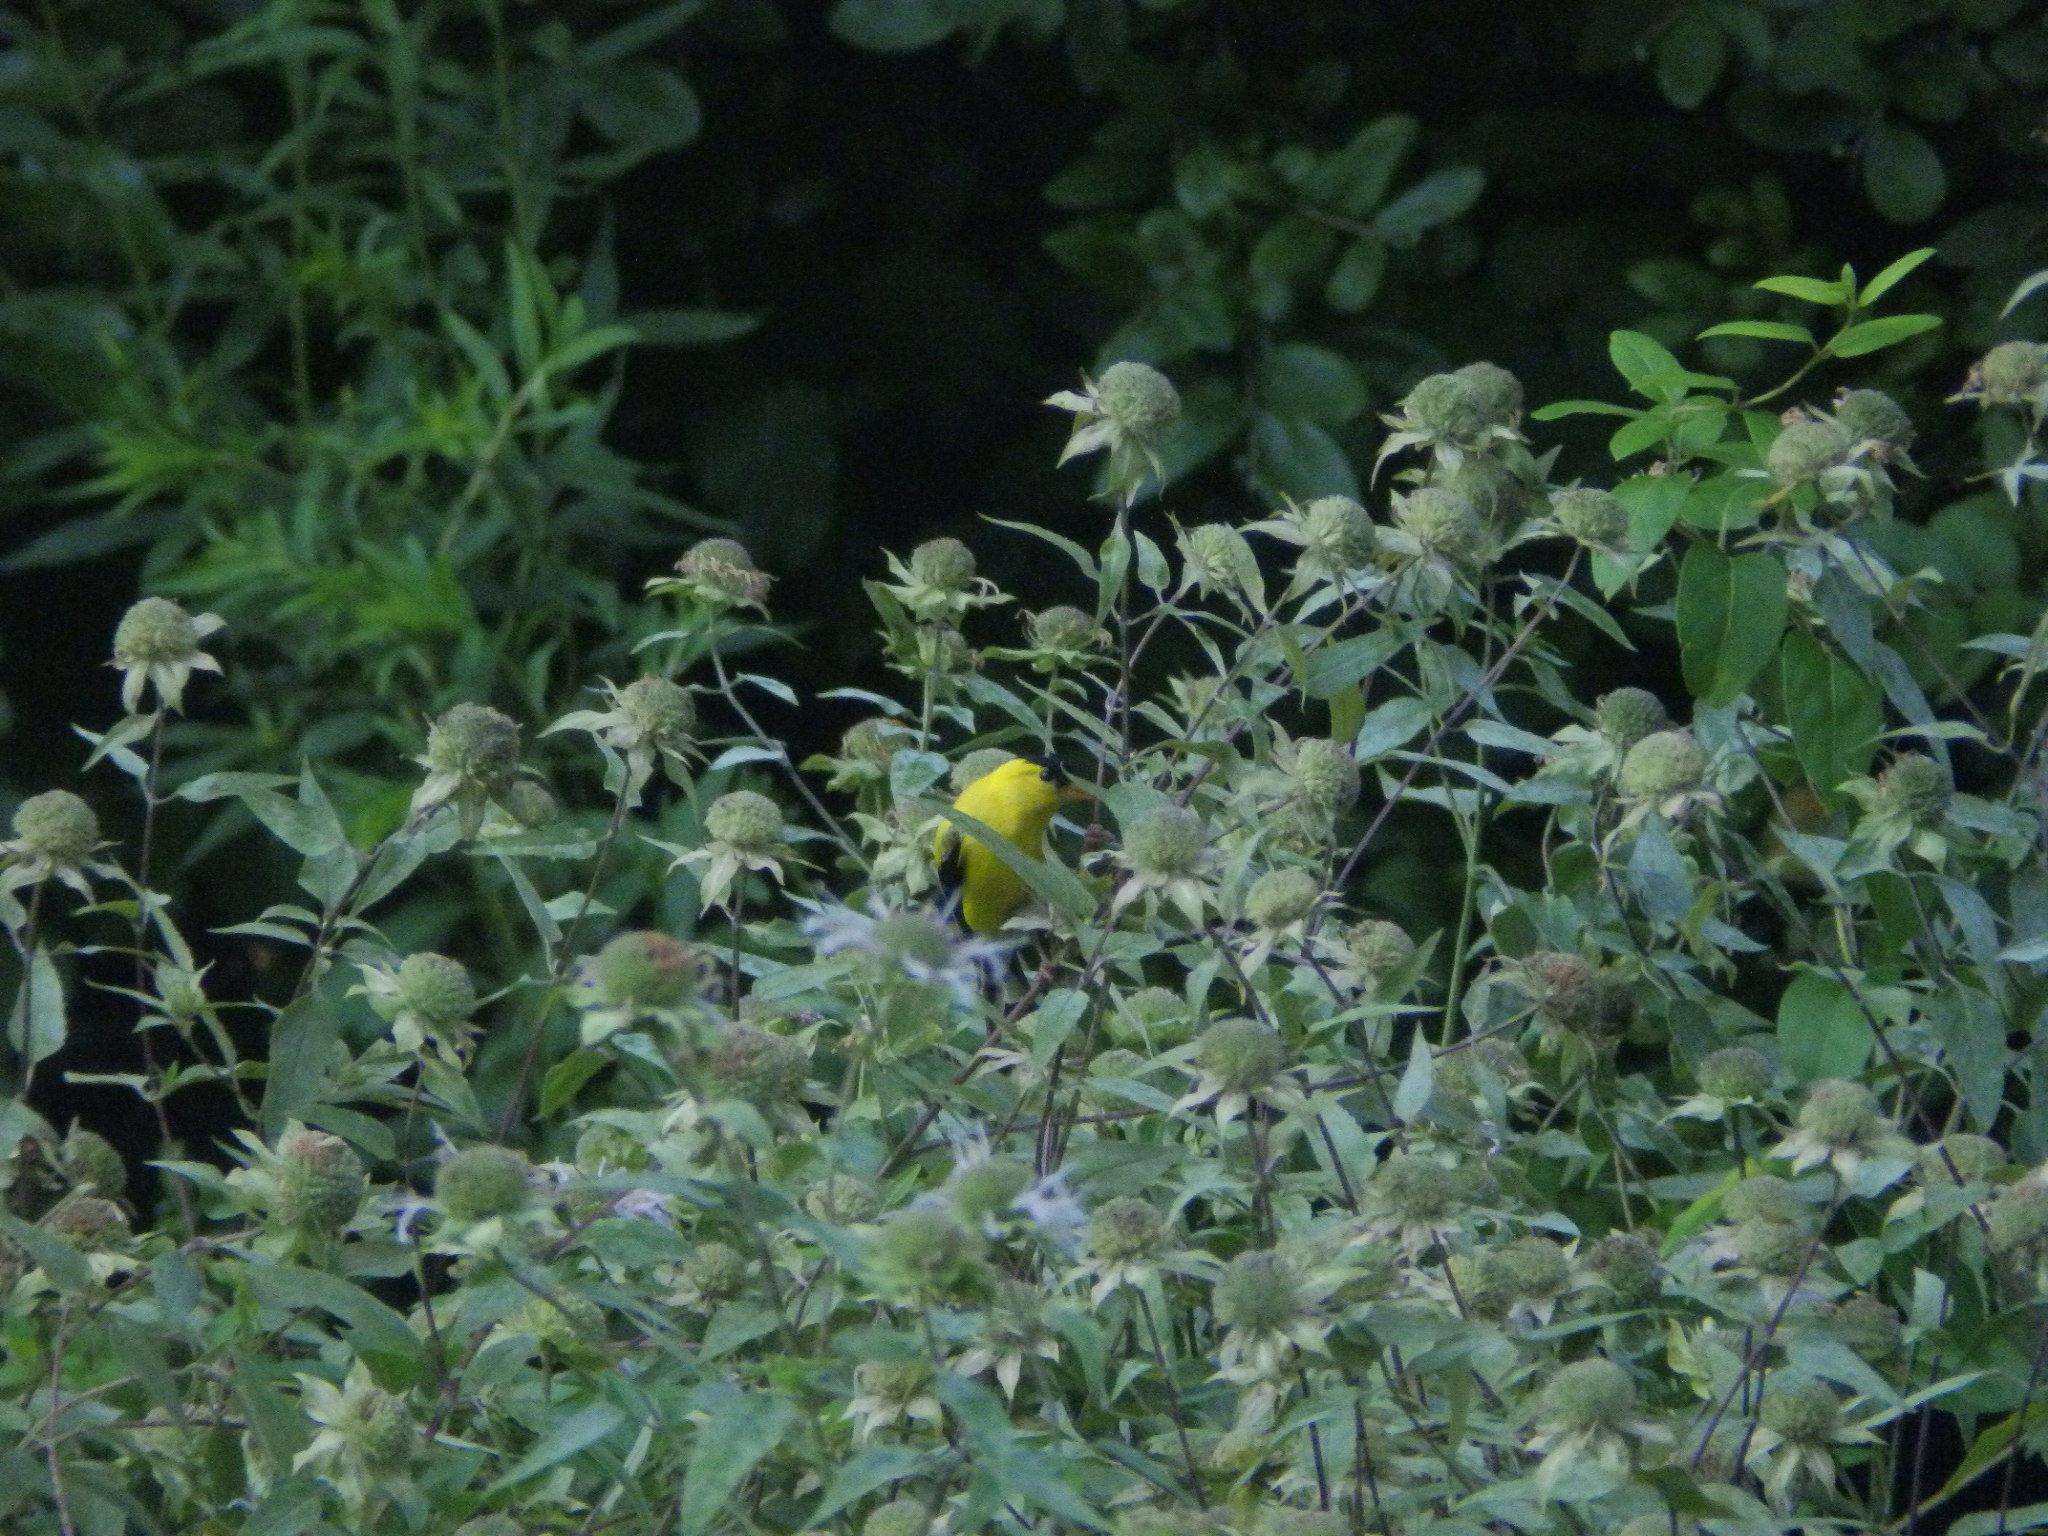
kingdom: Animalia
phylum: Chordata
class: Aves
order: Passeriformes
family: Fringillidae
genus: Spinus
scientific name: Spinus tristis
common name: American goldfinch
